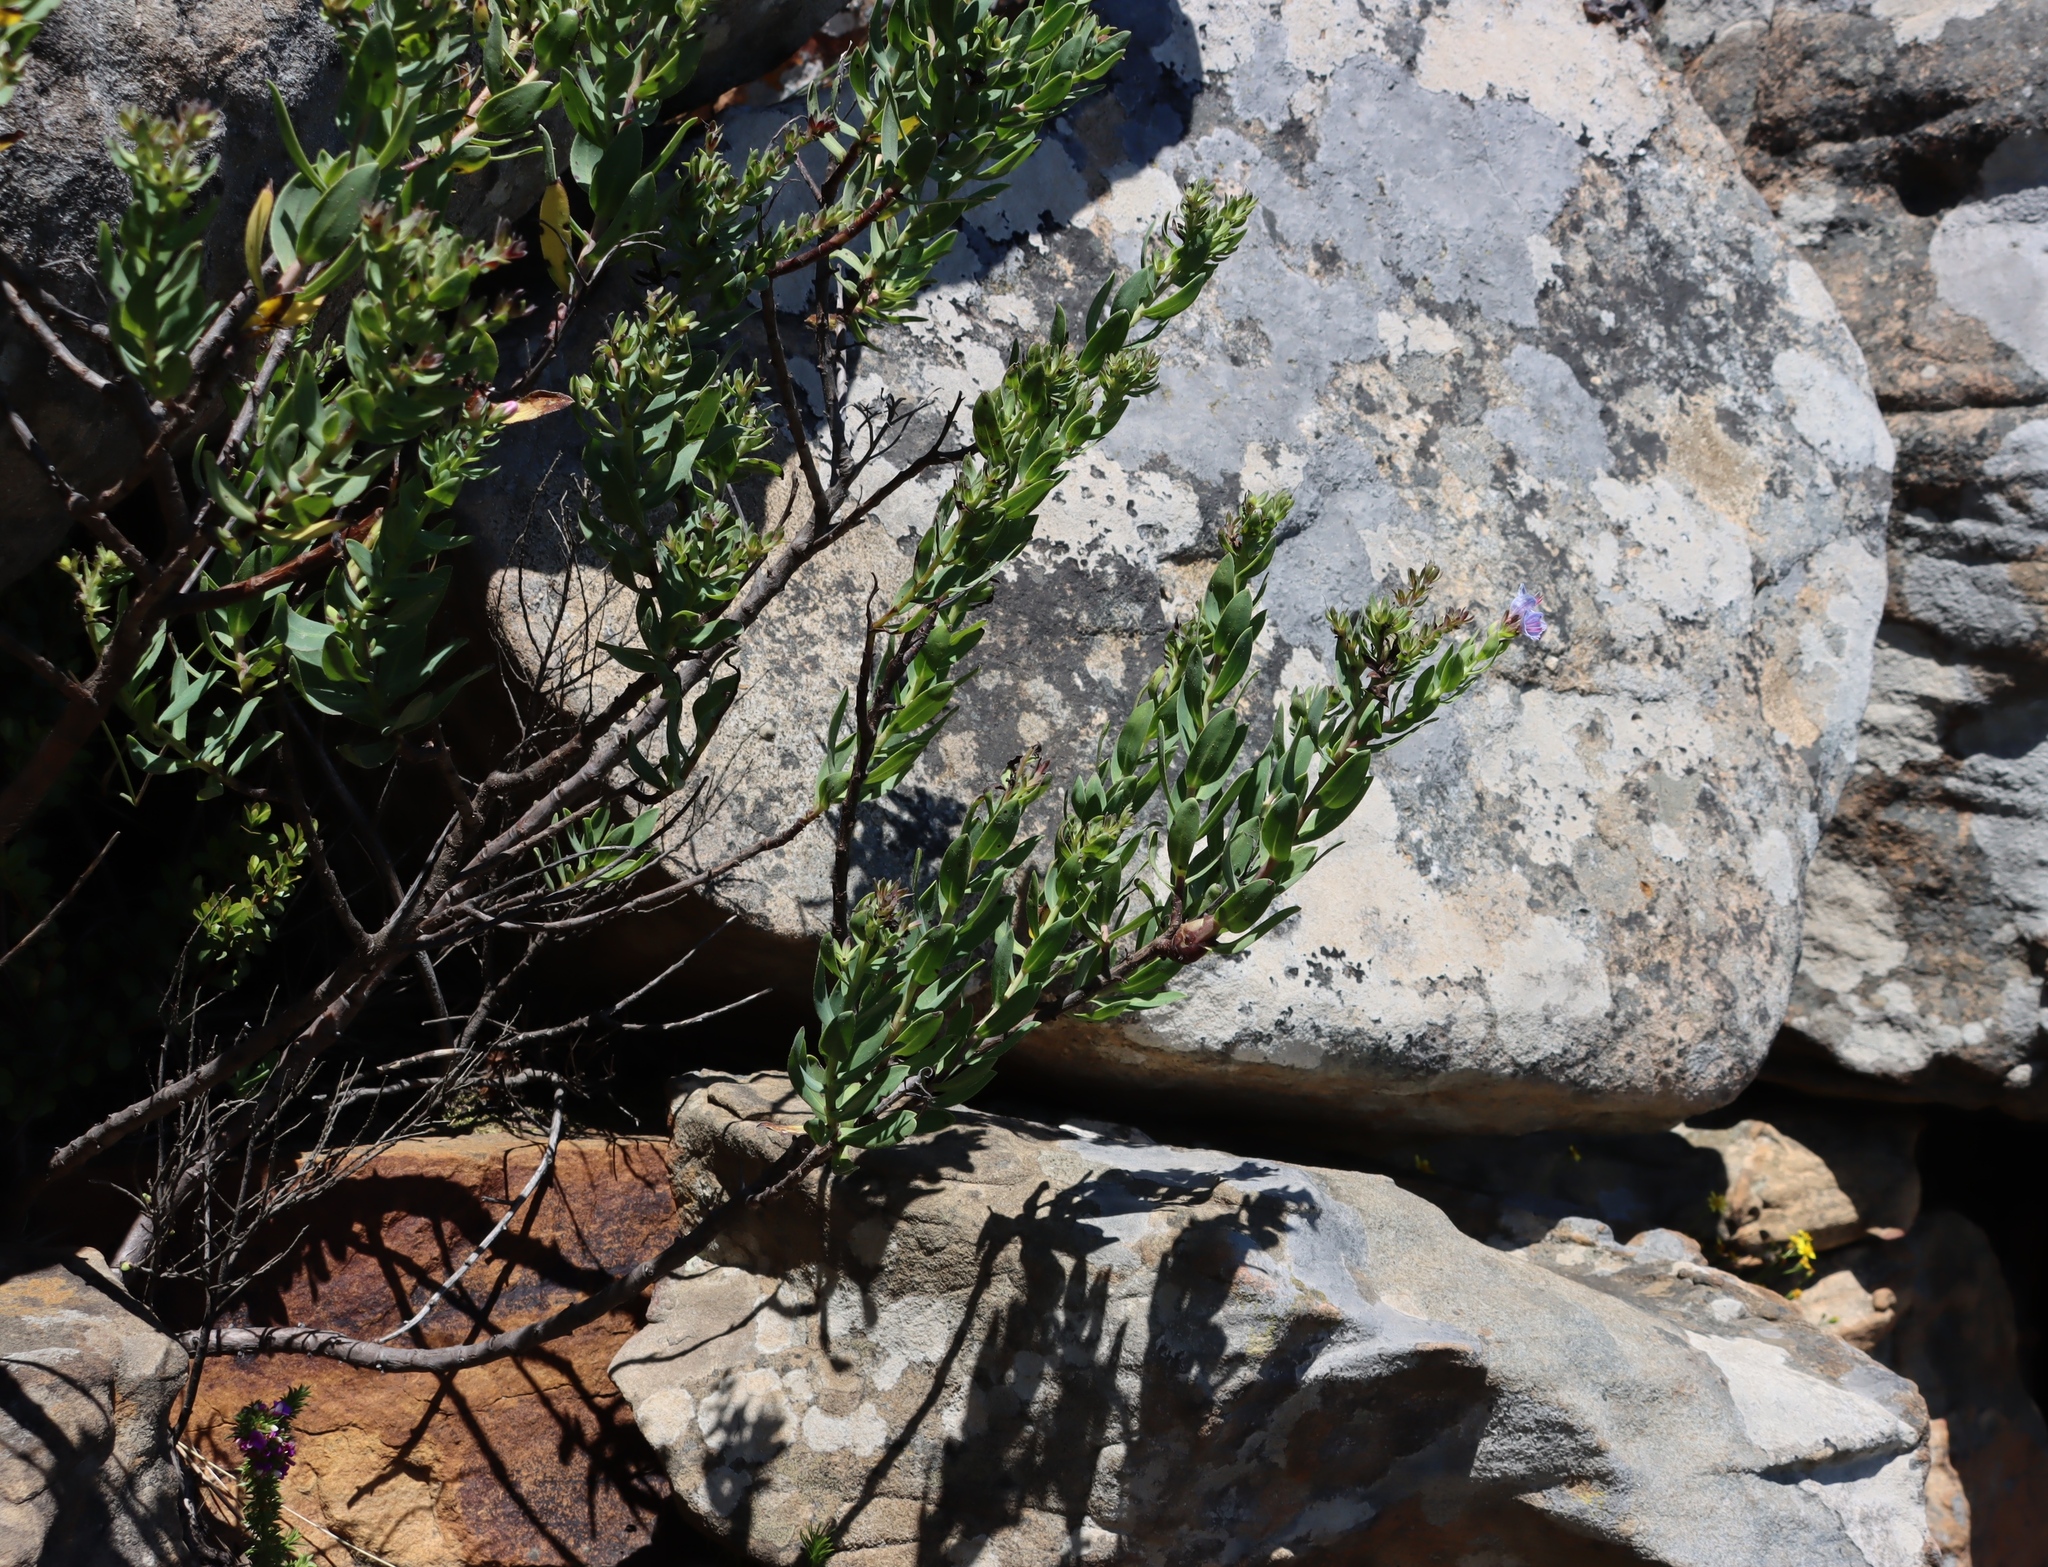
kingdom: Plantae
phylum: Tracheophyta
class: Magnoliopsida
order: Boraginales
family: Boraginaceae
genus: Lobostemon
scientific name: Lobostemon glaucophyllus
